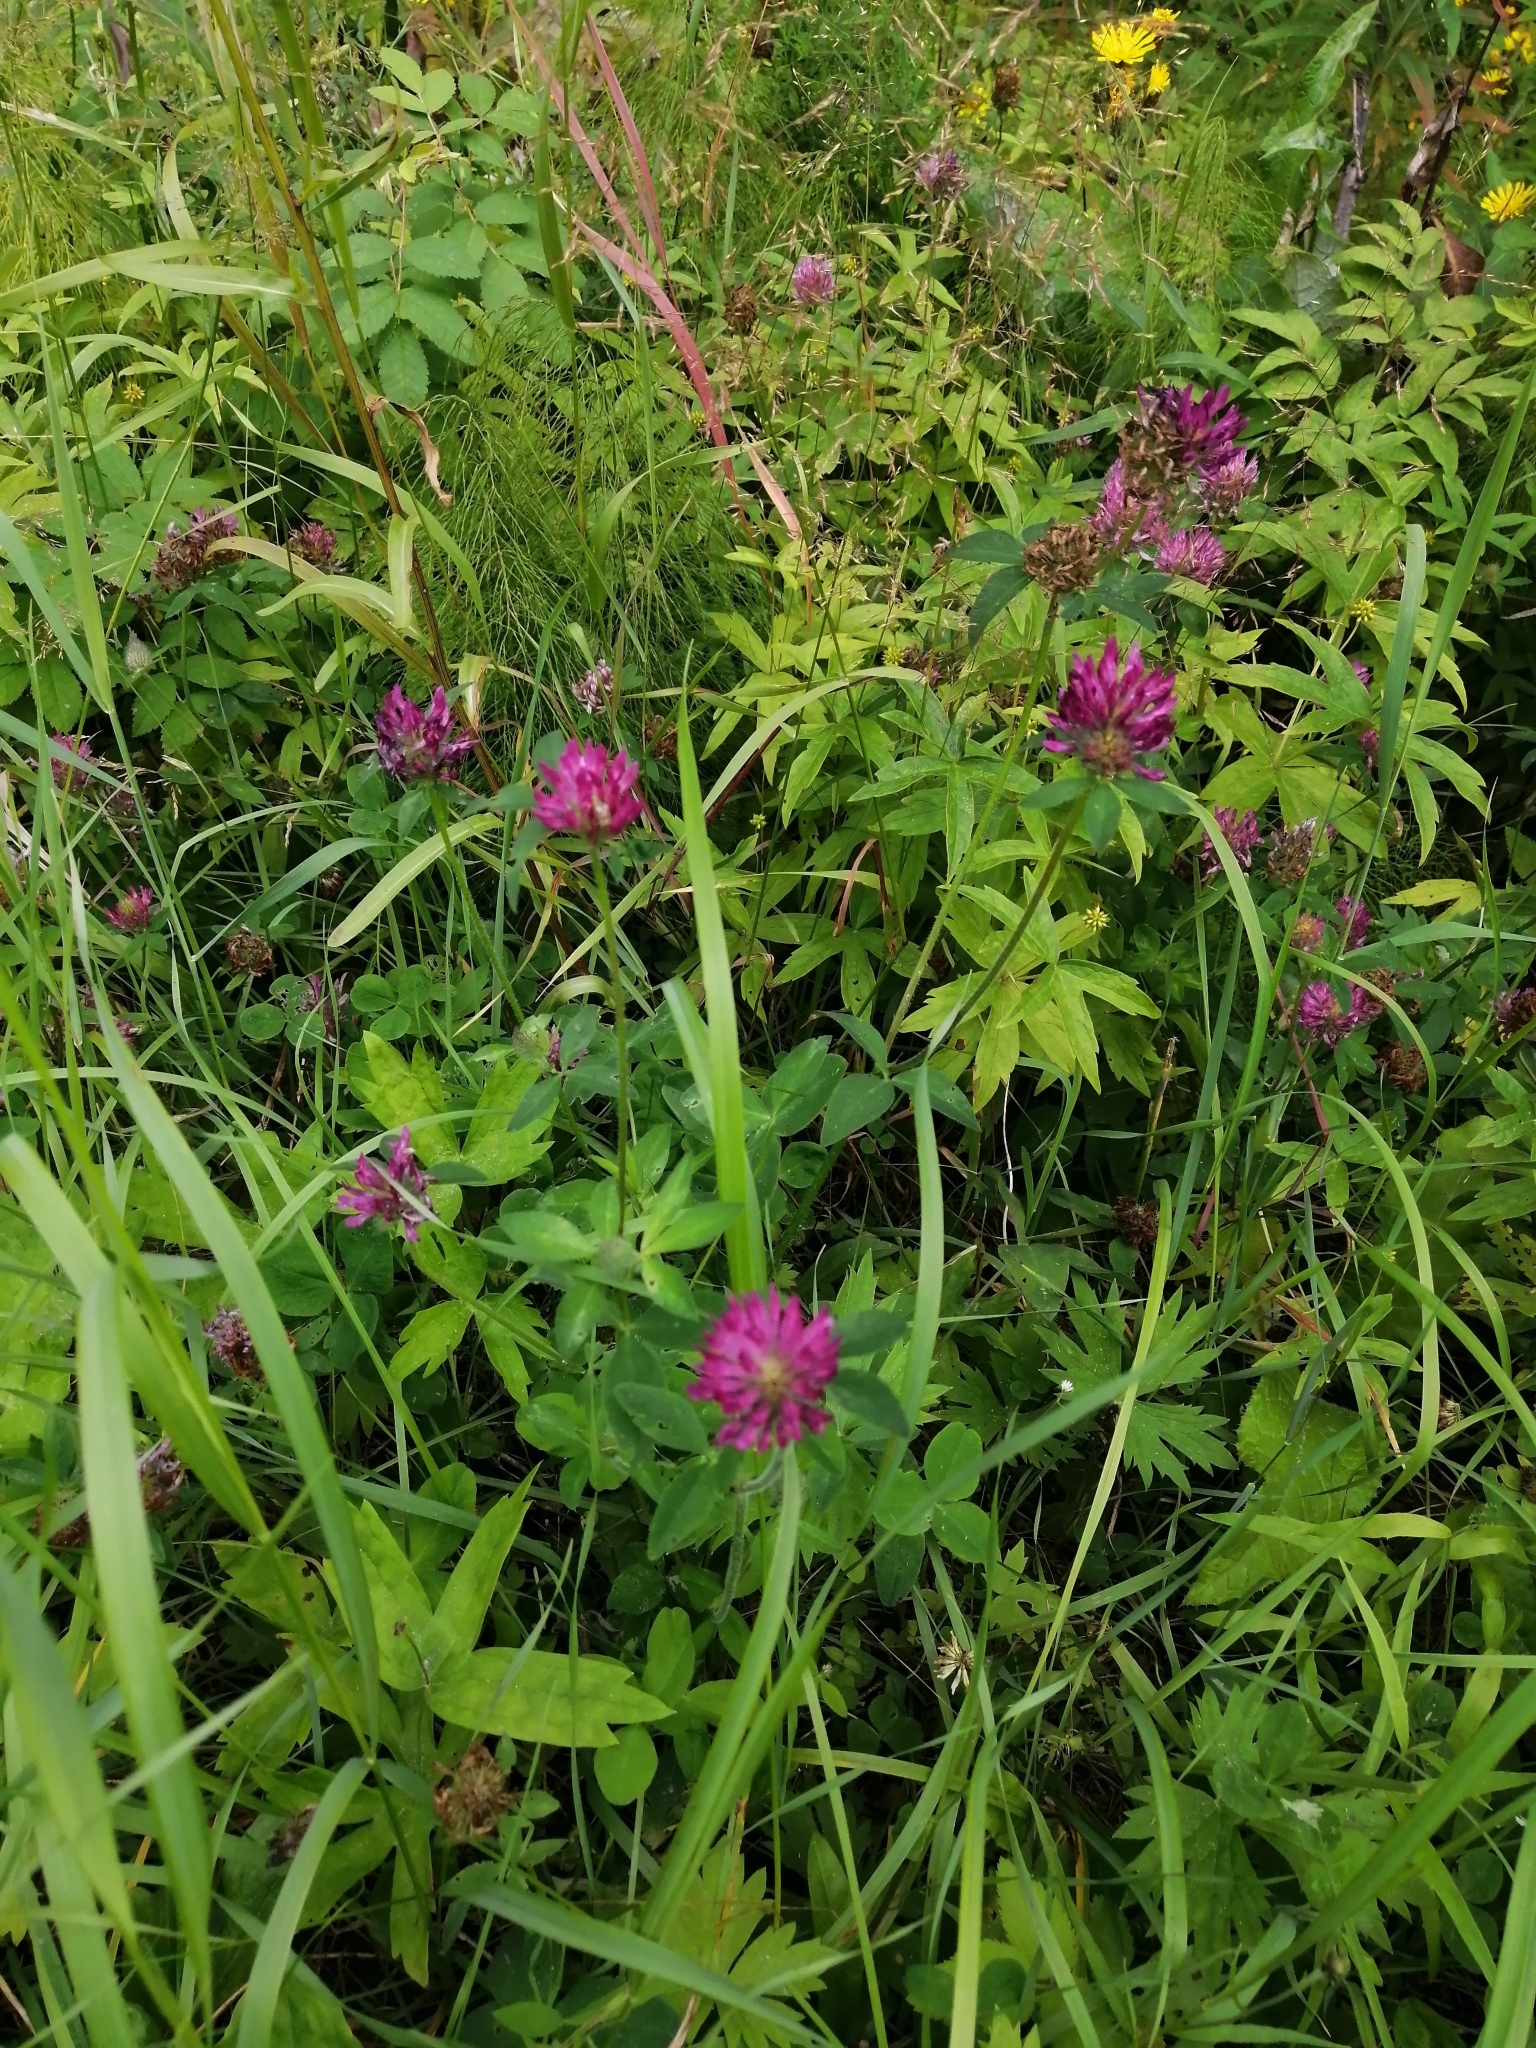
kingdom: Plantae
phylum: Tracheophyta
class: Magnoliopsida
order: Fabales
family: Fabaceae
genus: Trifolium
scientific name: Trifolium pratense
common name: Red clover
